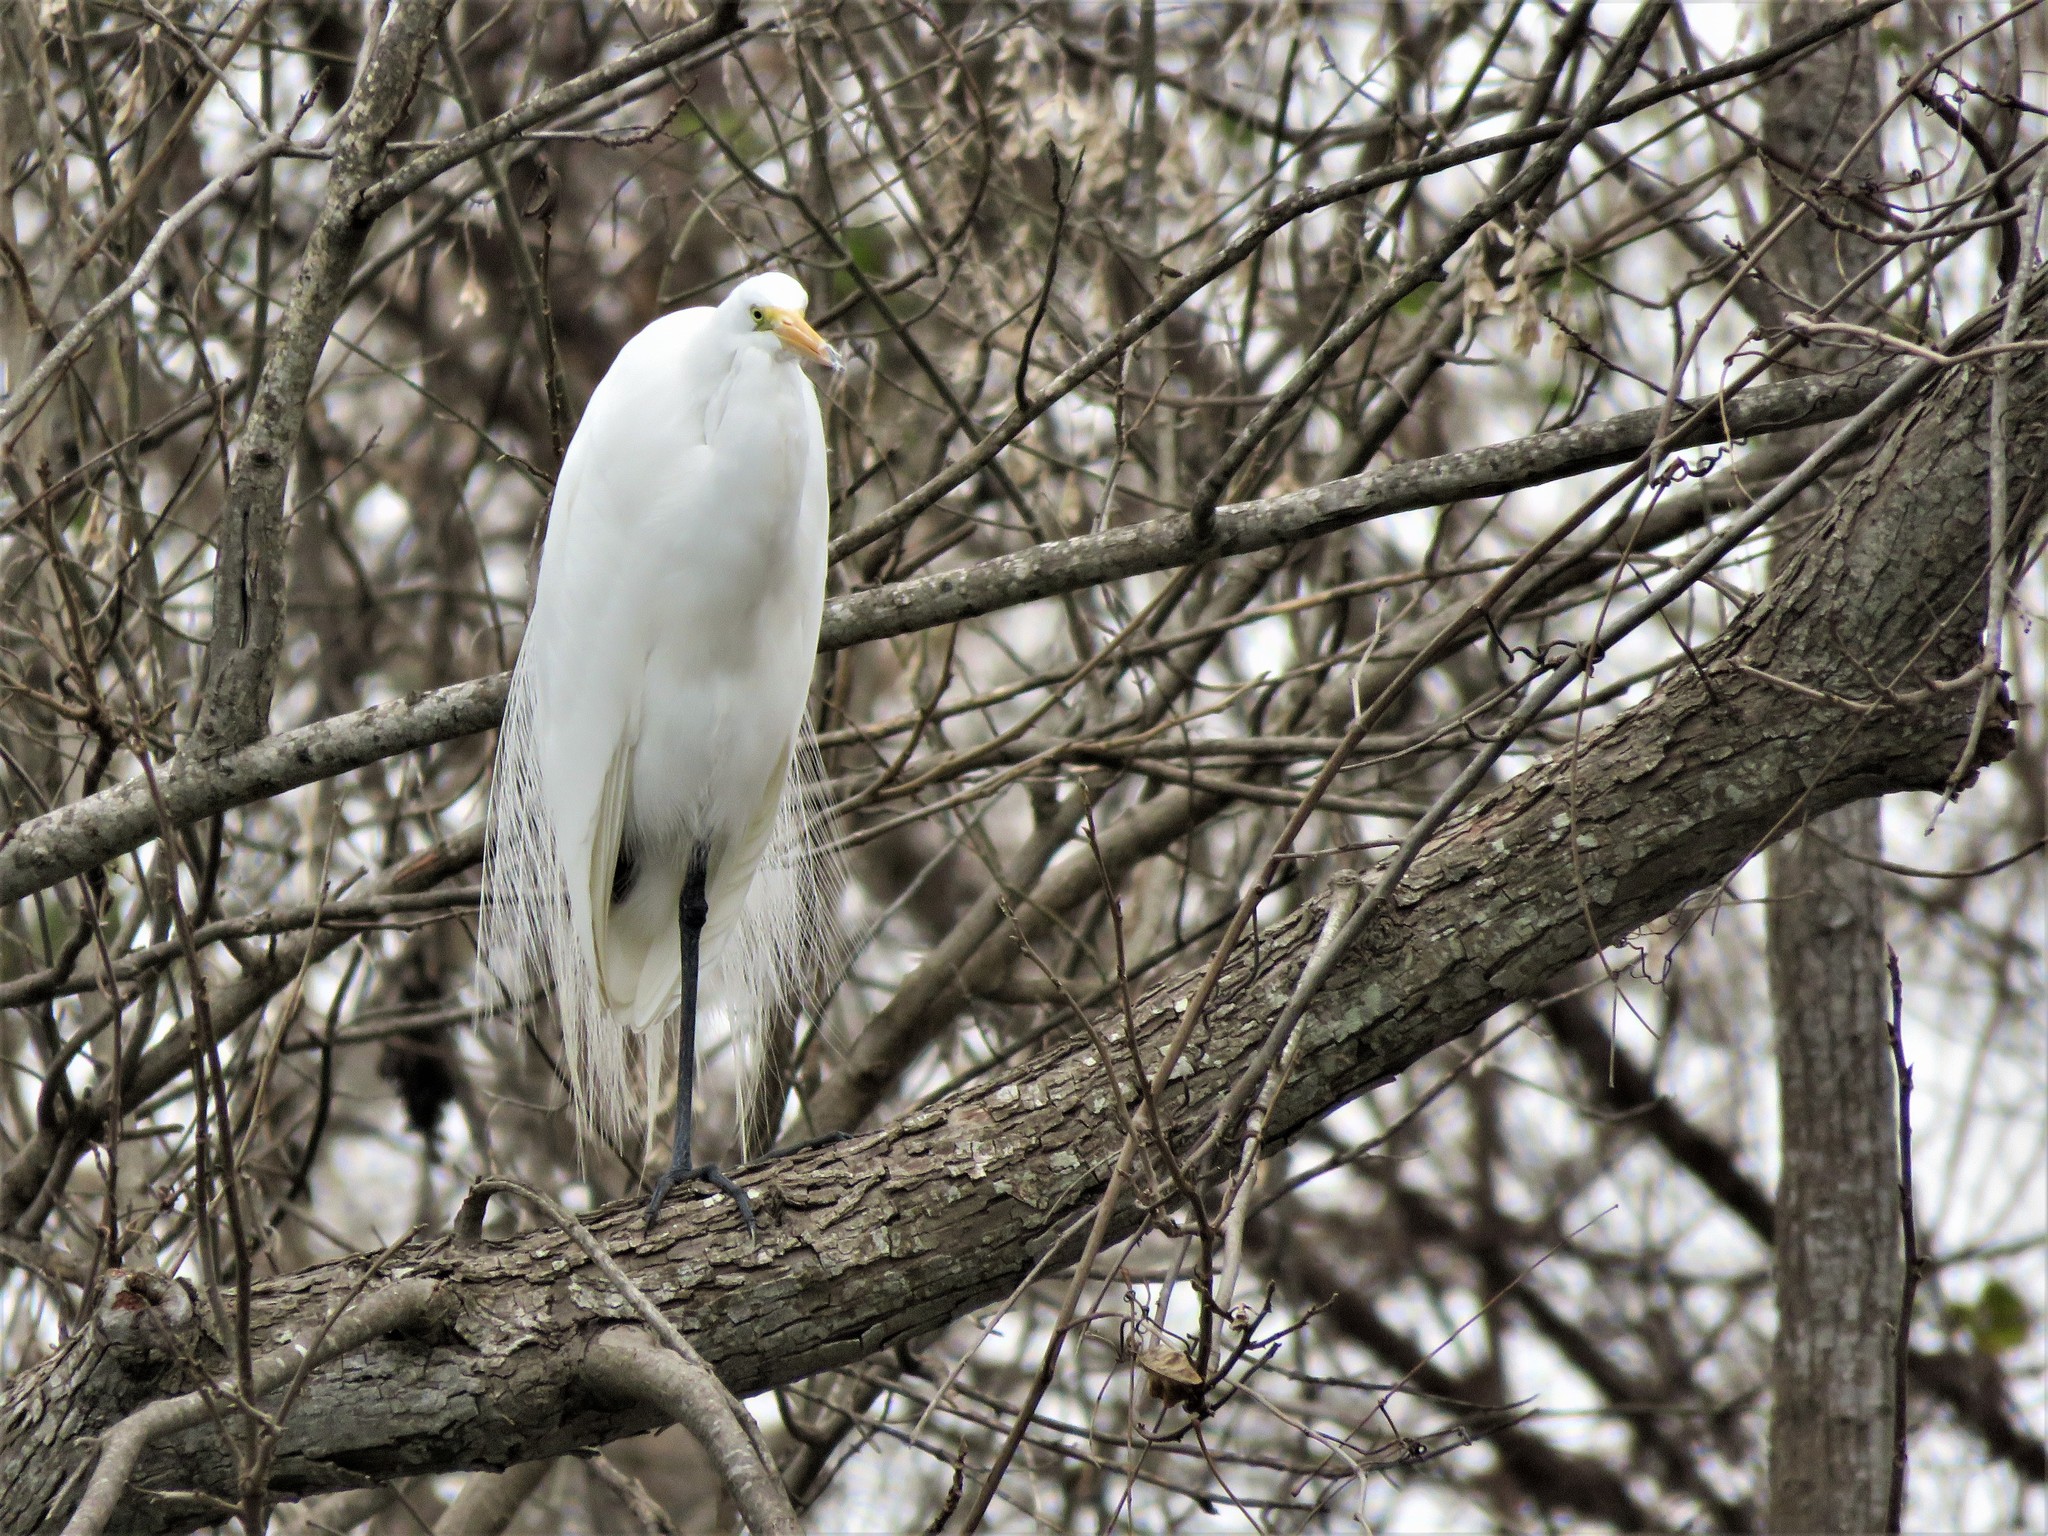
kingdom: Animalia
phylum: Chordata
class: Aves
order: Pelecaniformes
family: Ardeidae
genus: Ardea
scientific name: Ardea alba
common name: Great egret
